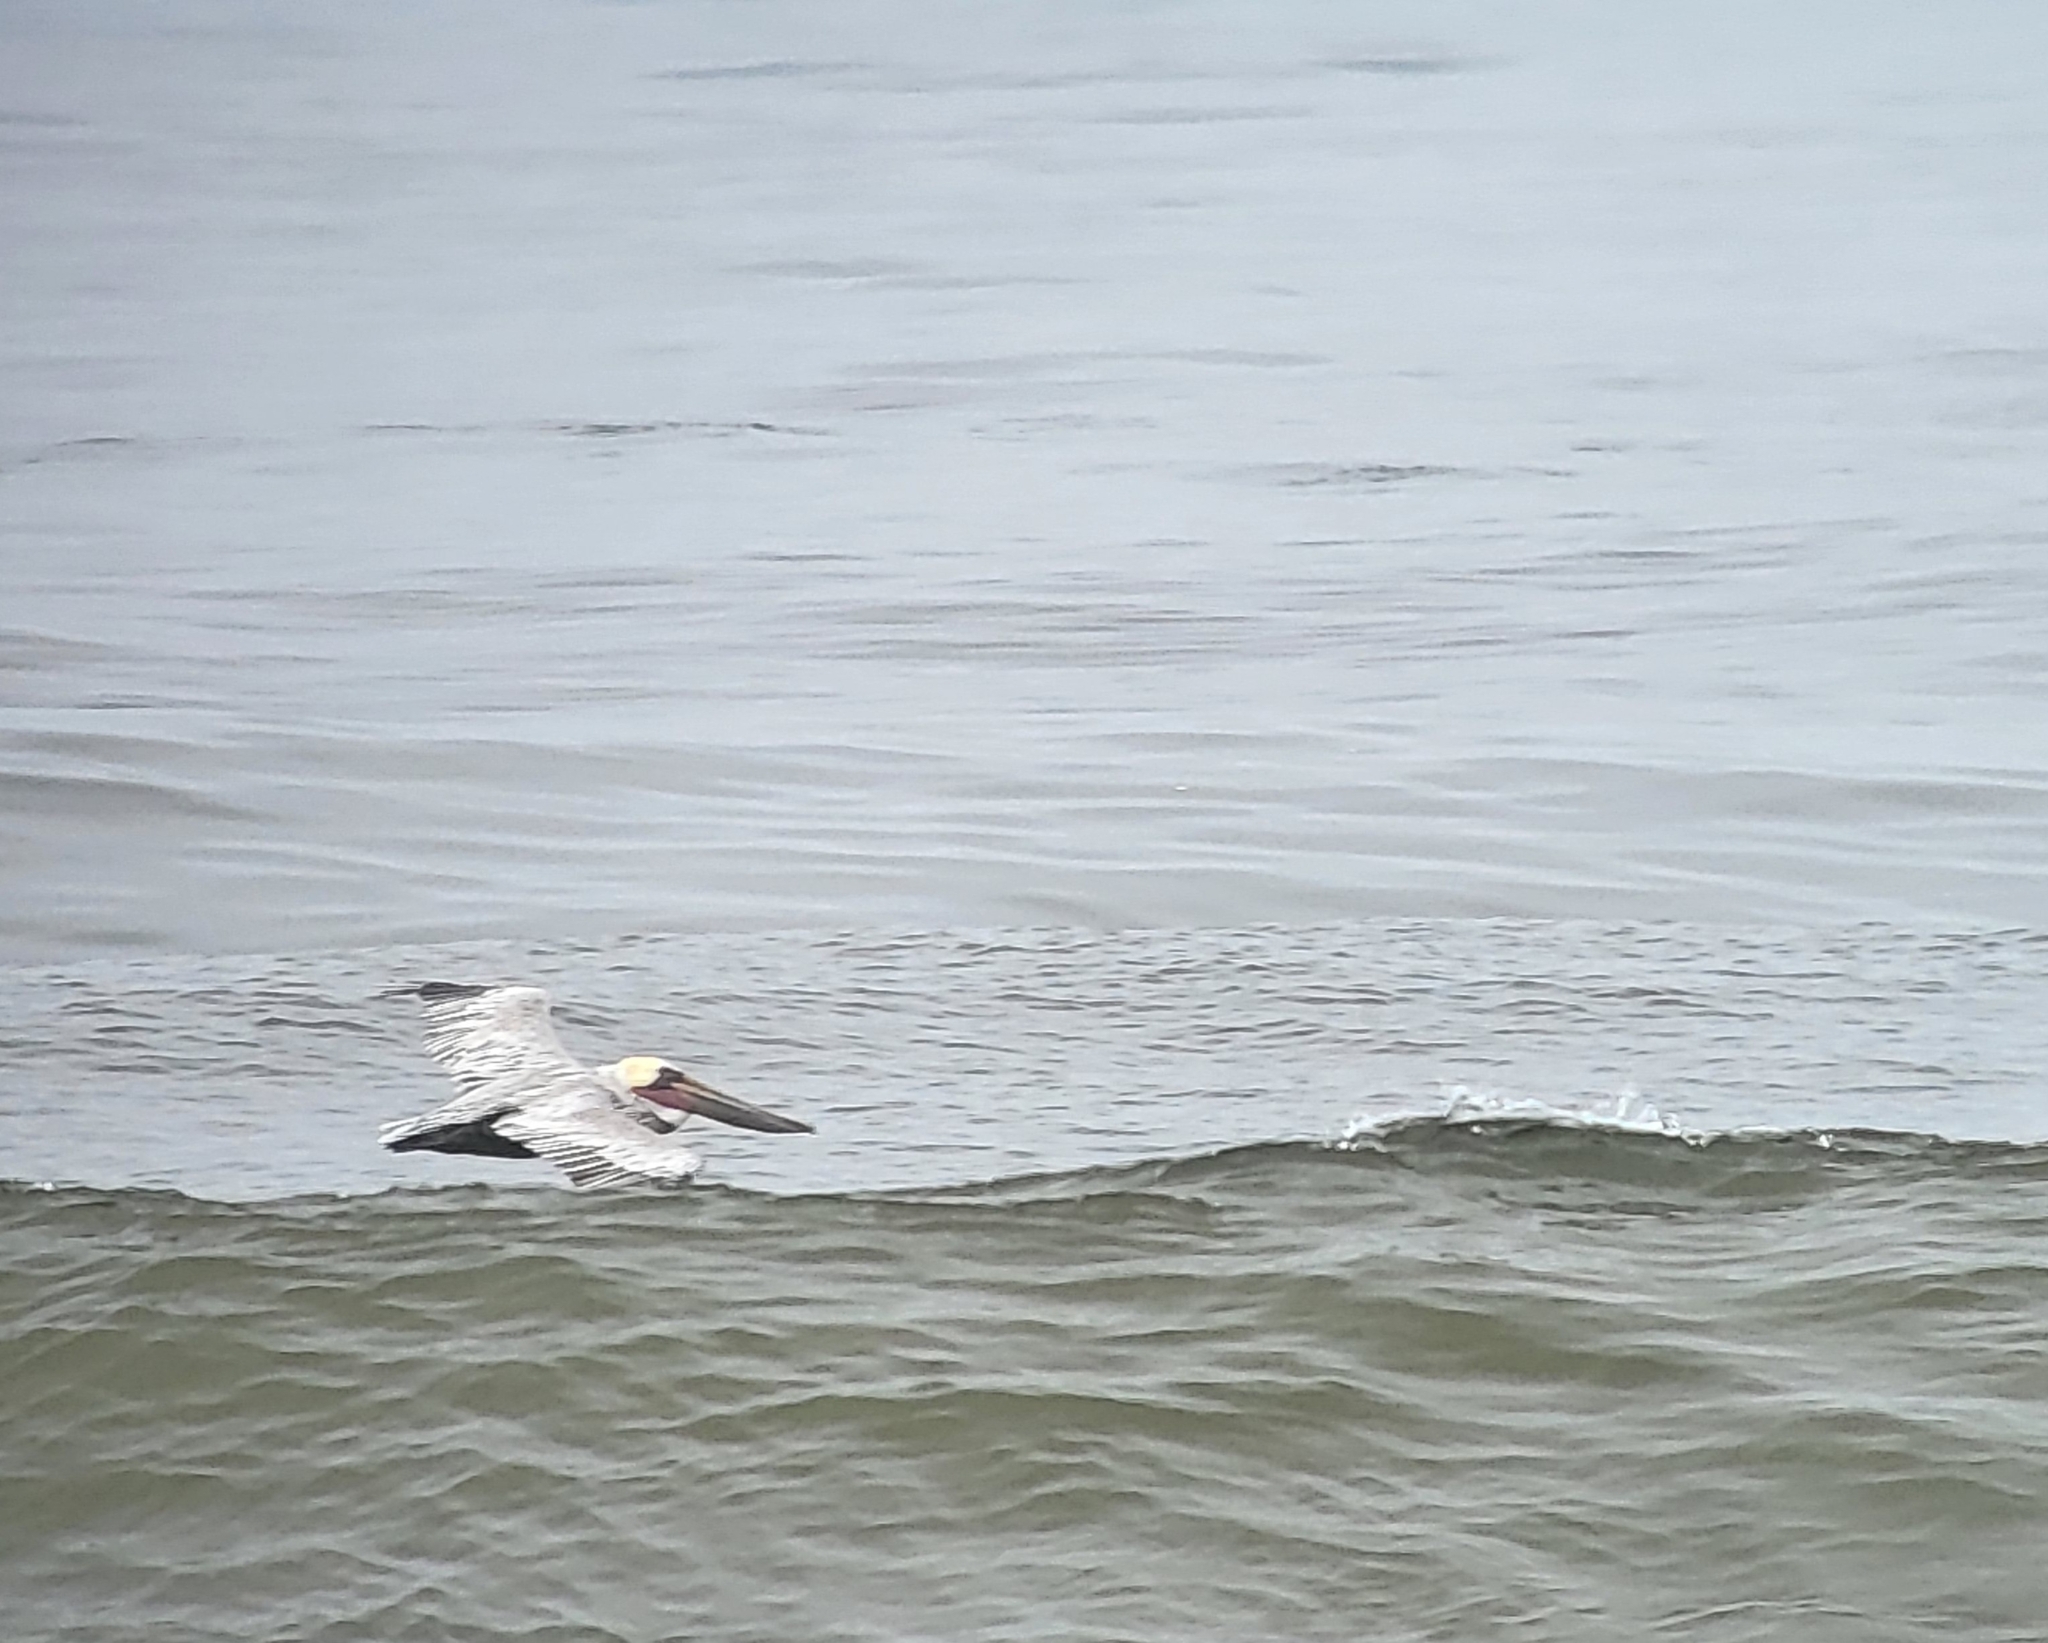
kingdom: Animalia
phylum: Chordata
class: Aves
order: Pelecaniformes
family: Pelecanidae
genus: Pelecanus
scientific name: Pelecanus occidentalis
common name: Brown pelican
